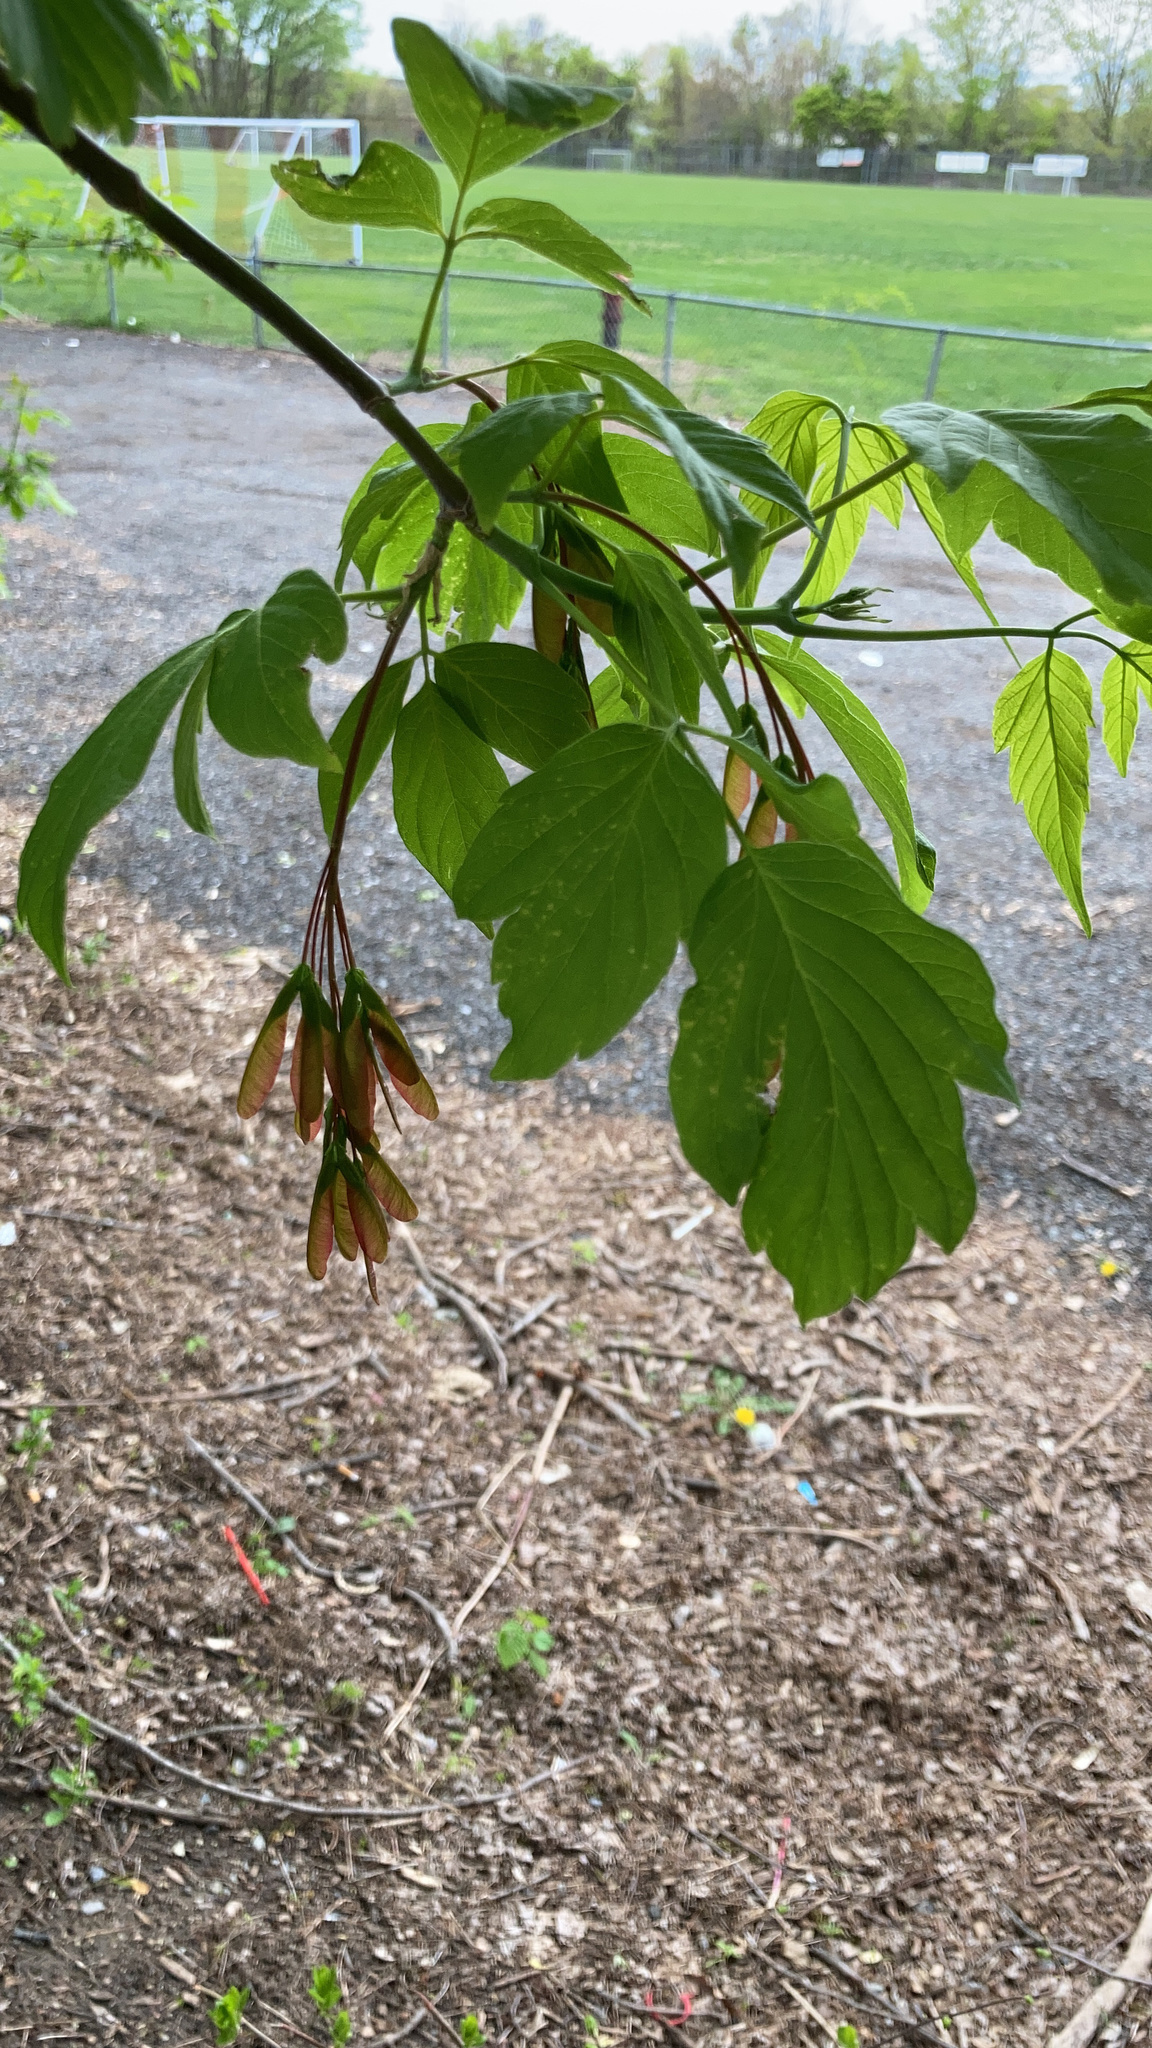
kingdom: Plantae
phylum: Tracheophyta
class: Magnoliopsida
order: Sapindales
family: Sapindaceae
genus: Acer
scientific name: Acer negundo
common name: Ashleaf maple
